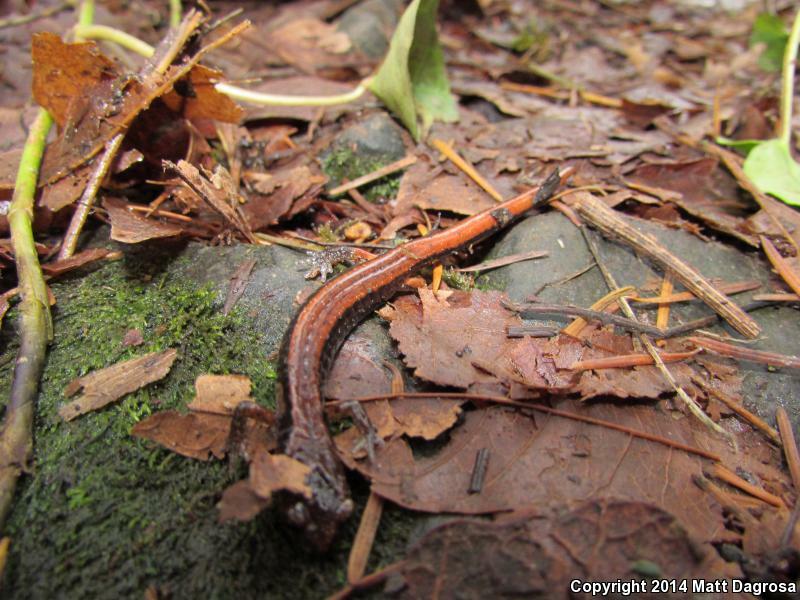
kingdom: Animalia
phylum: Chordata
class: Amphibia
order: Caudata
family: Plethodontidae
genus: Plethodon
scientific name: Plethodon vehiculum
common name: Western red-backed salamander
